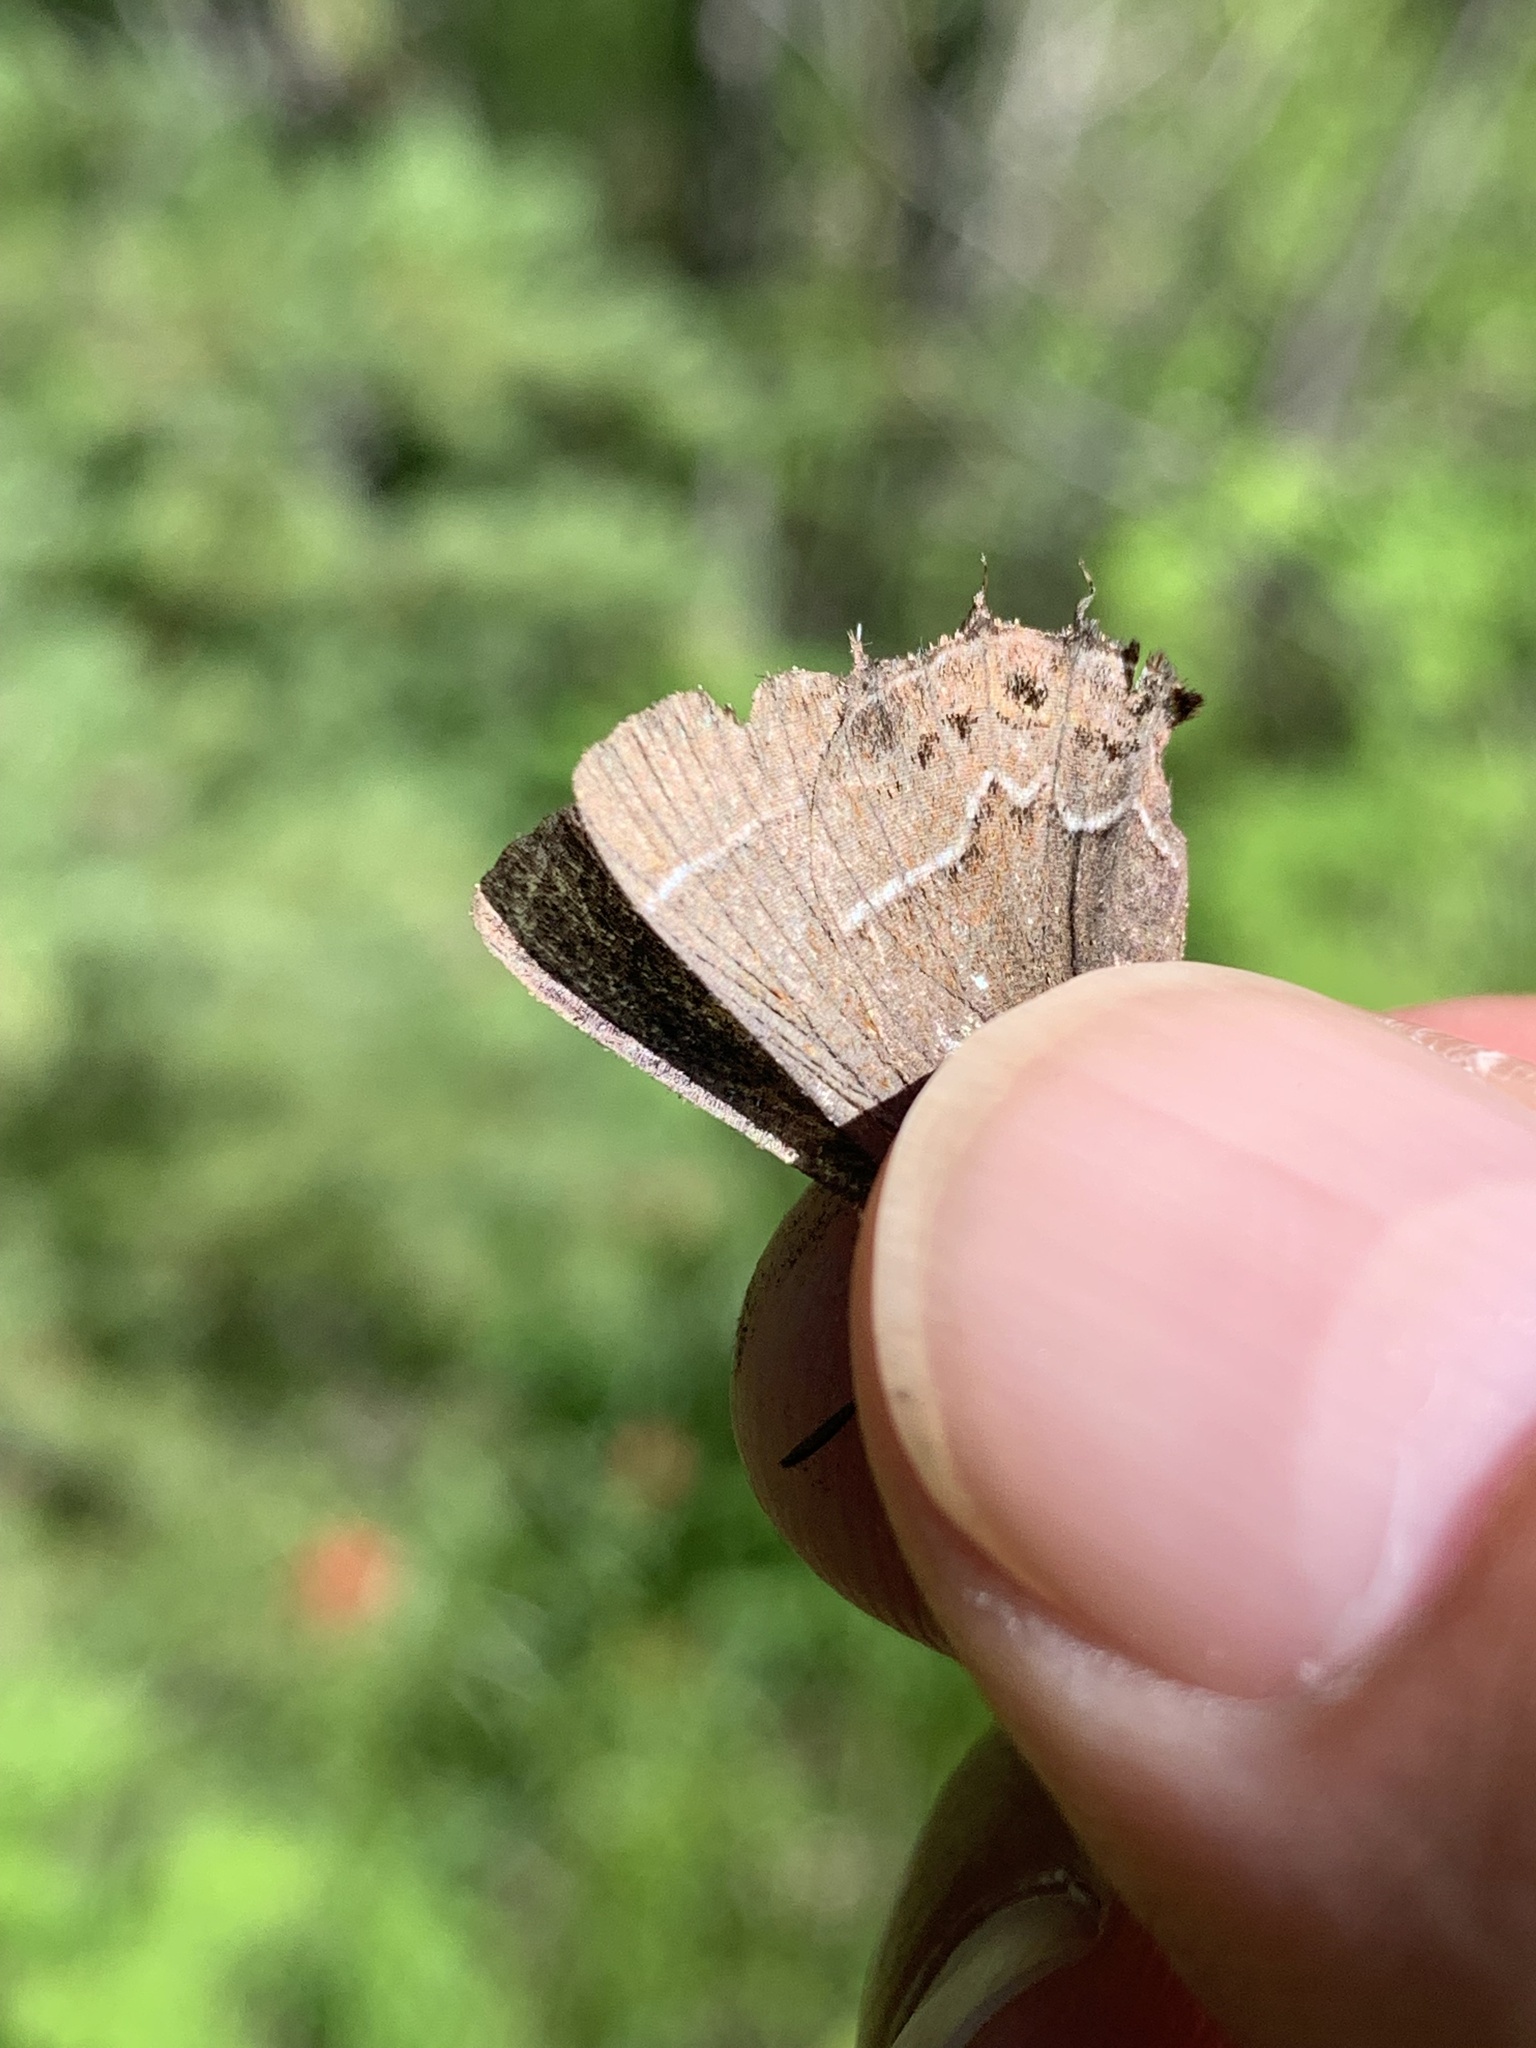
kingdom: Animalia
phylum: Arthropoda
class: Insecta
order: Lepidoptera
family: Lycaenidae
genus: Mitoura
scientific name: Mitoura spinetorum
